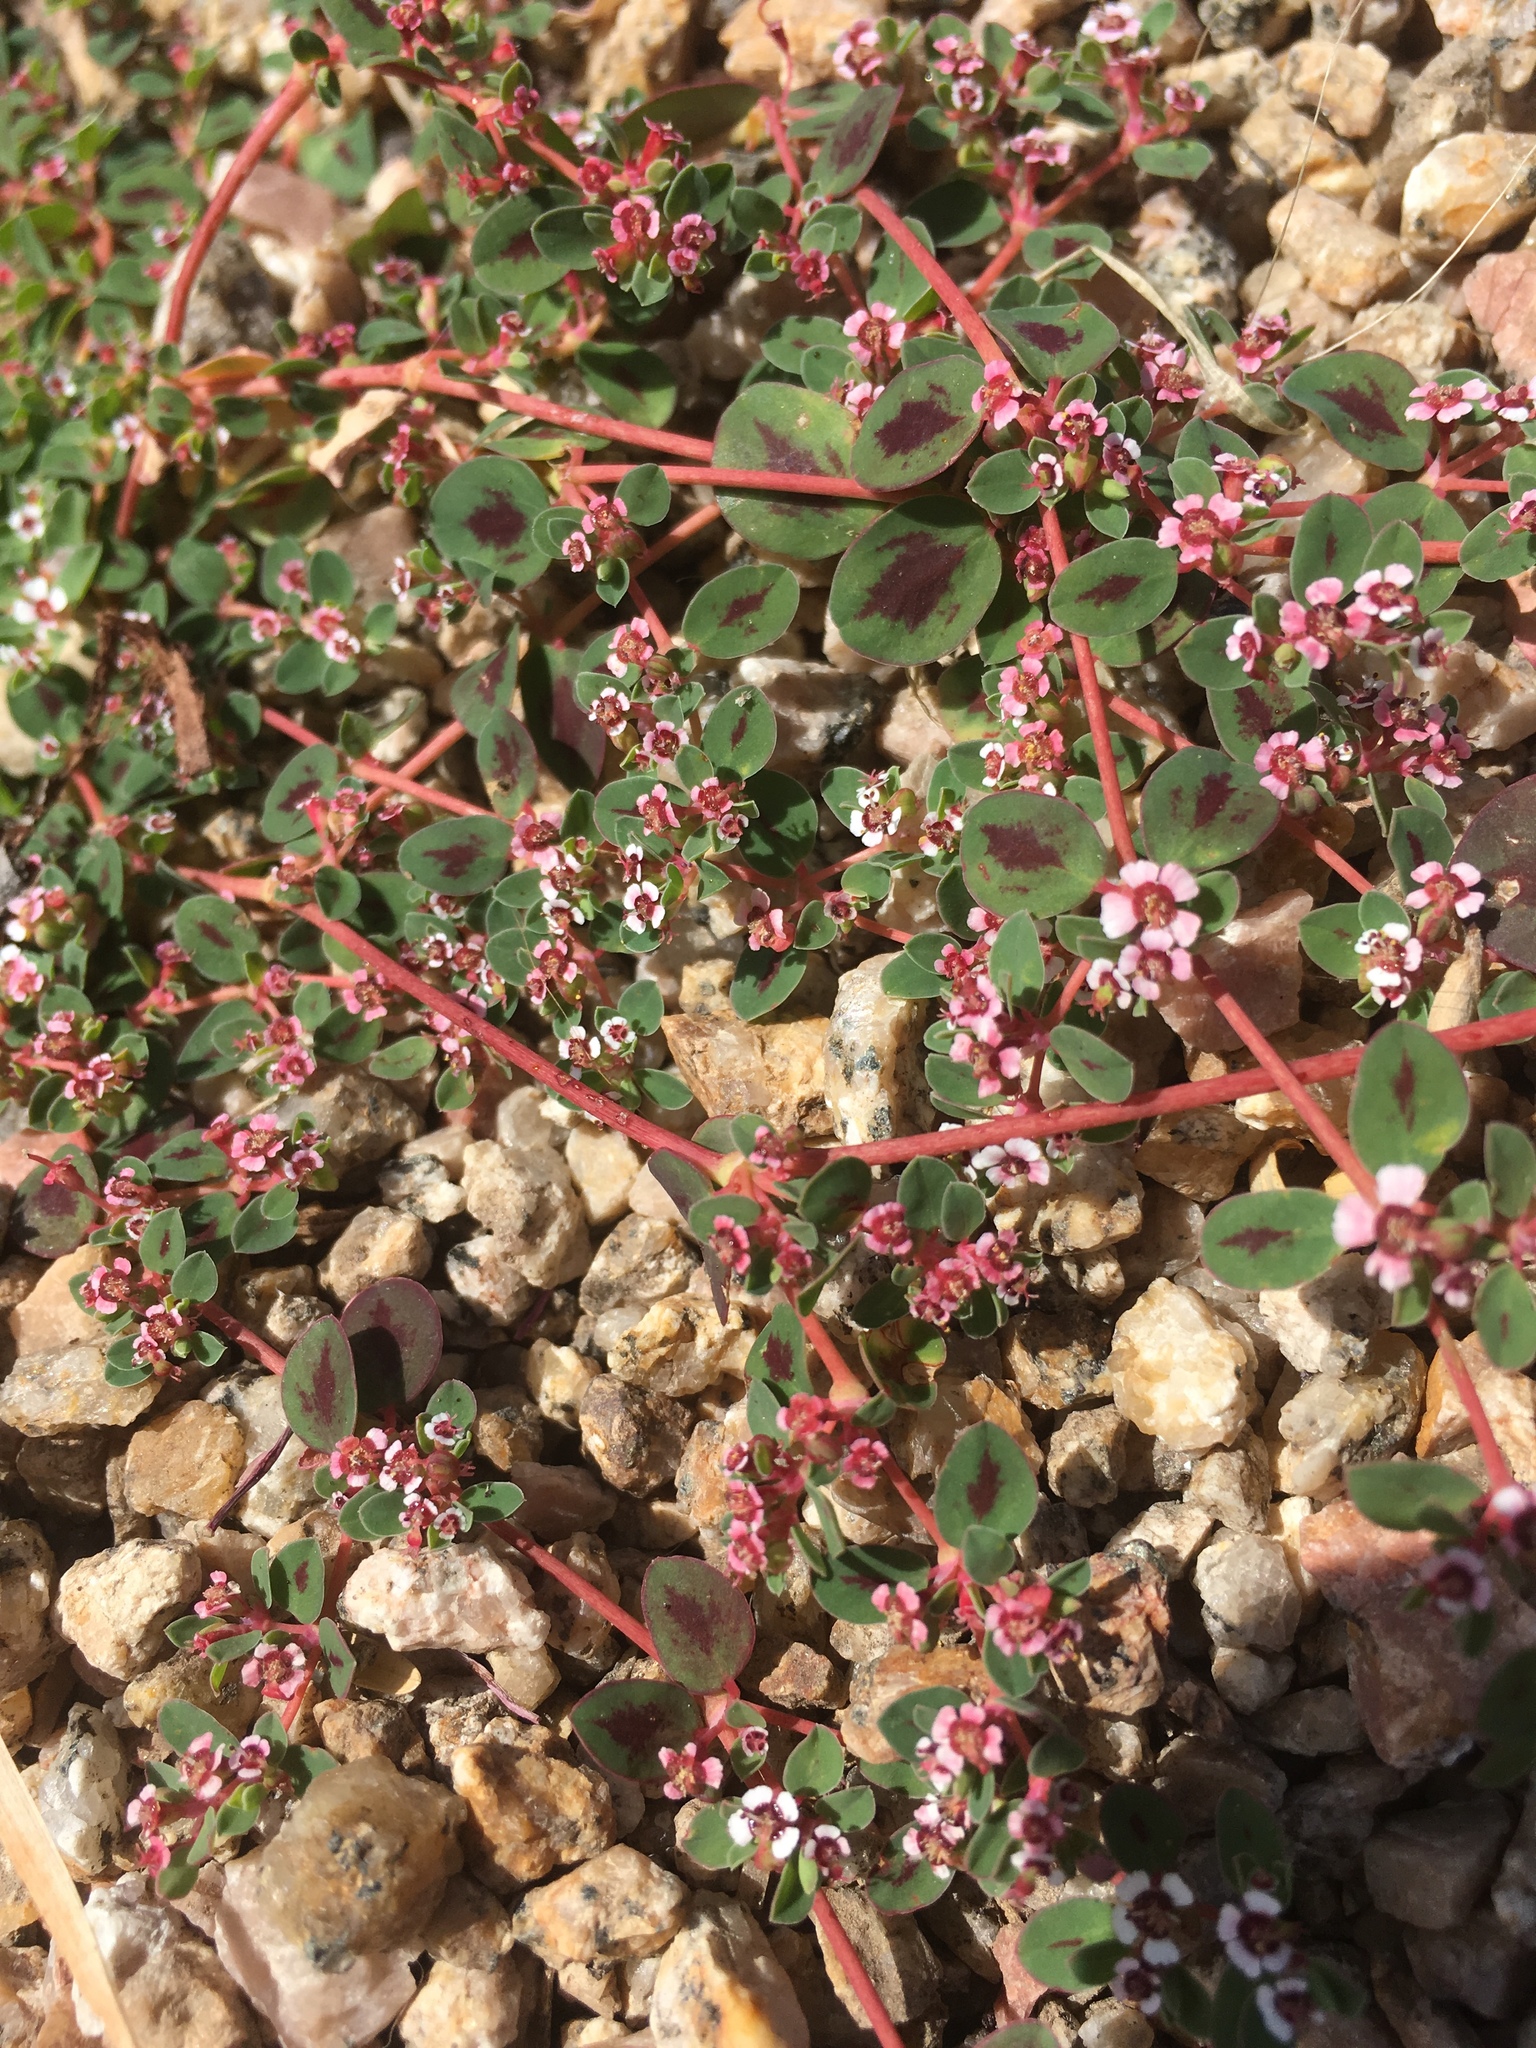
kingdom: Plantae
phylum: Tracheophyta
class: Magnoliopsida
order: Malpighiales
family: Euphorbiaceae
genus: Euphorbia
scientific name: Euphorbia albomarginata
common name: Whitemargin sandmat
